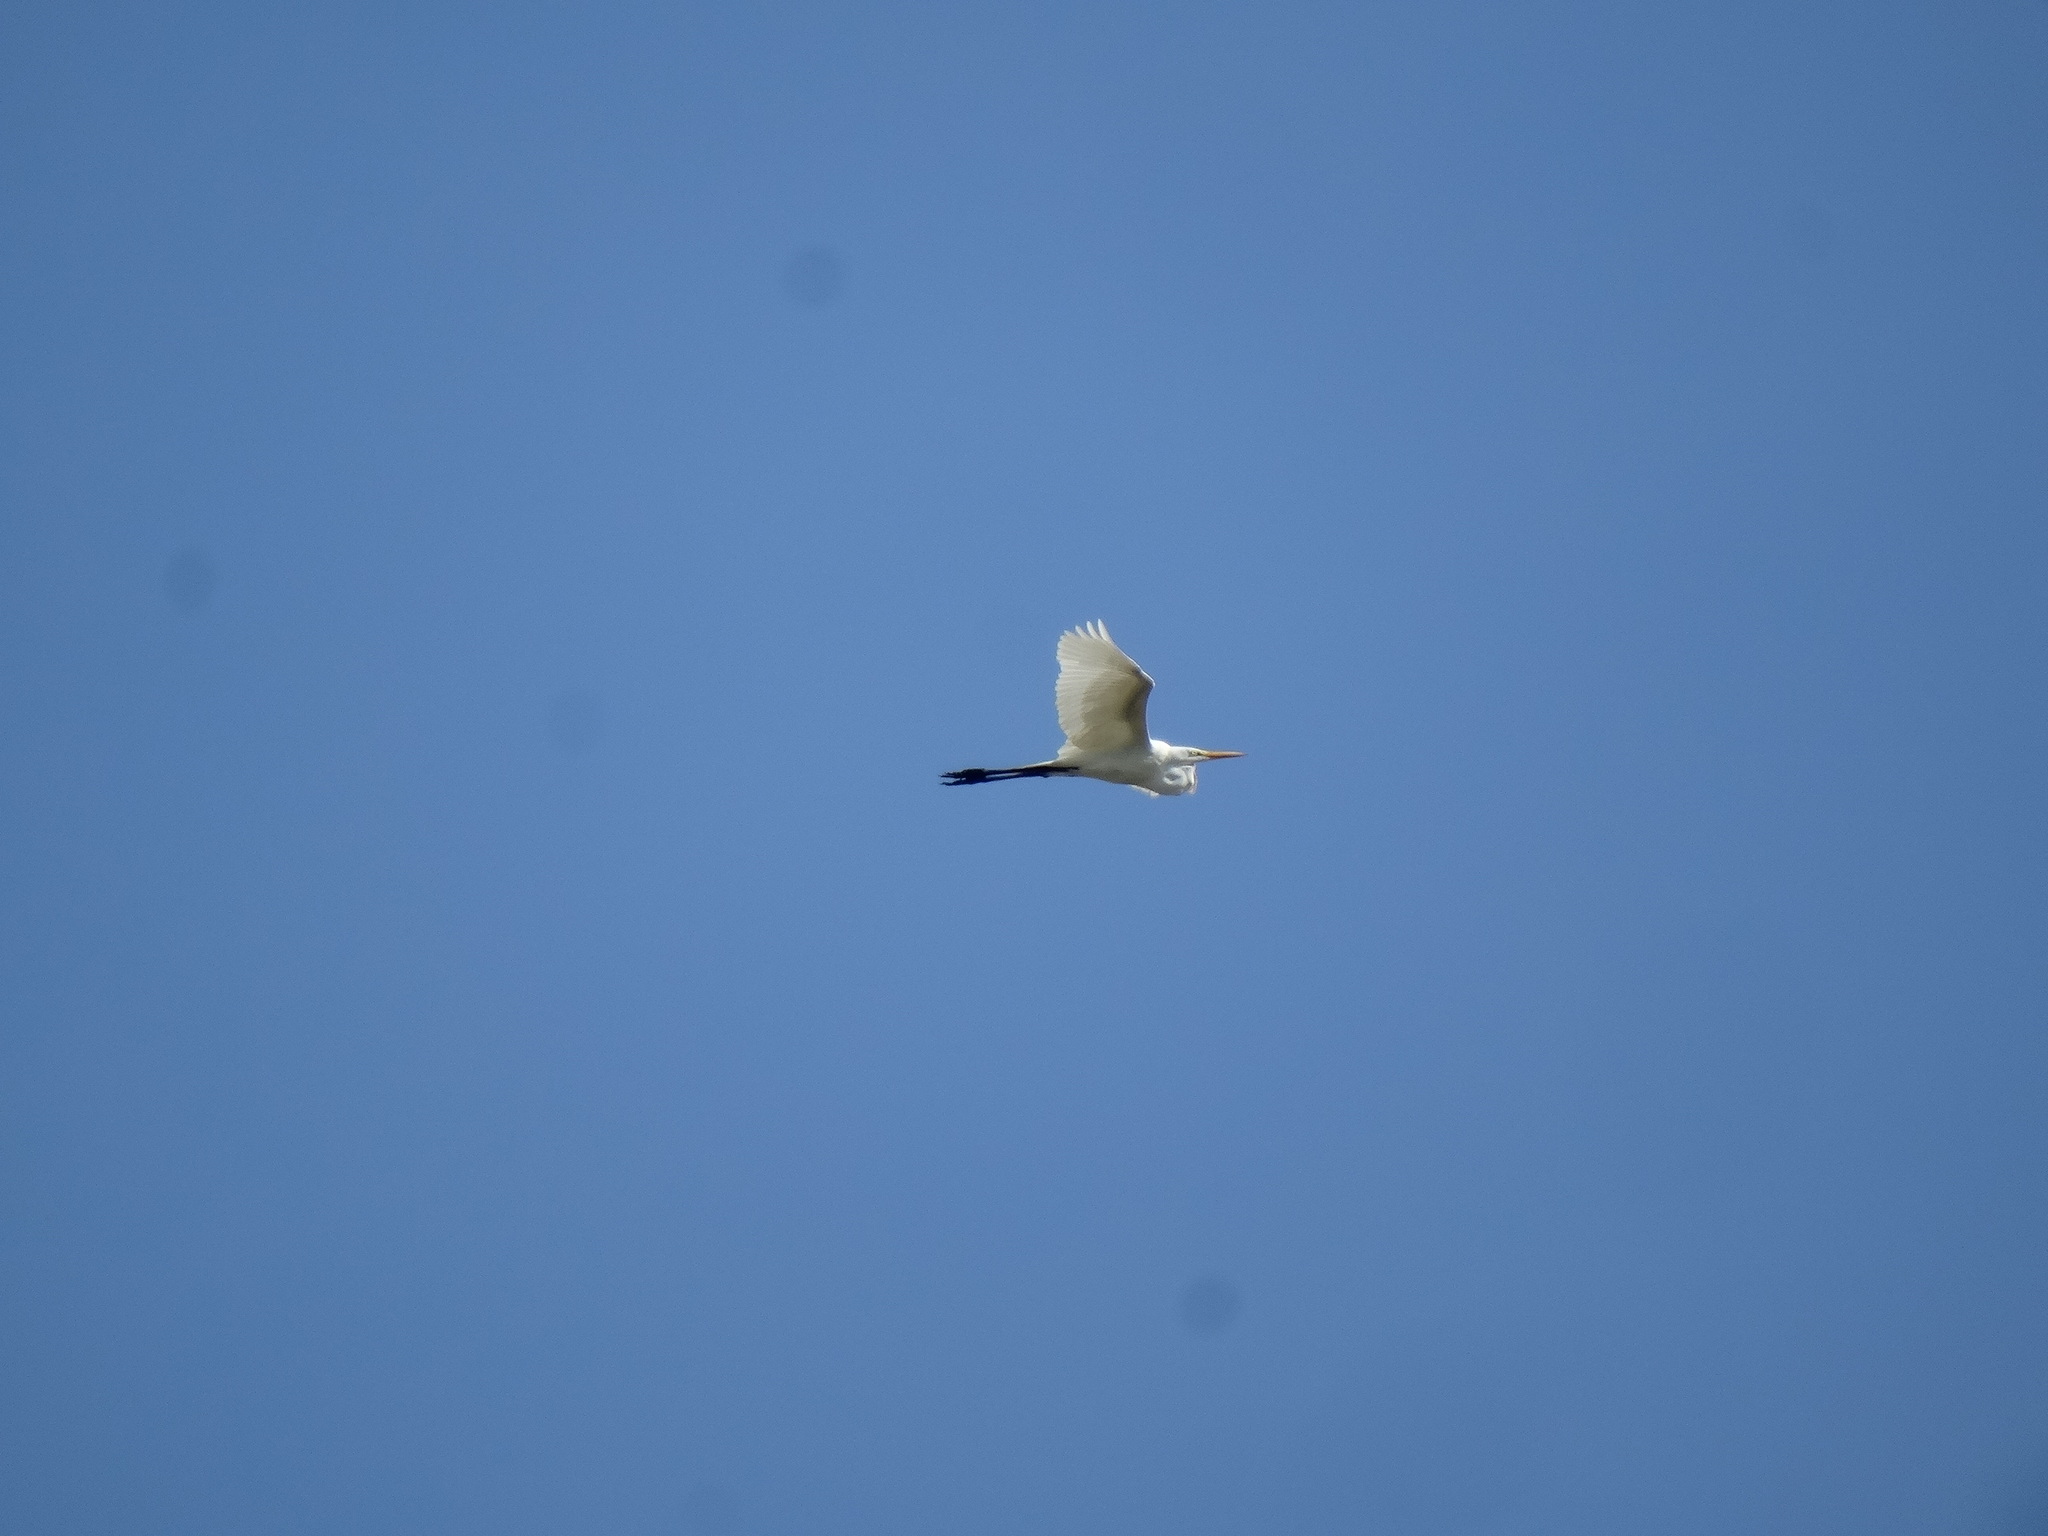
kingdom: Animalia
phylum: Chordata
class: Aves
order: Pelecaniformes
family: Ardeidae
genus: Ardea
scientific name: Ardea alba
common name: Great egret
